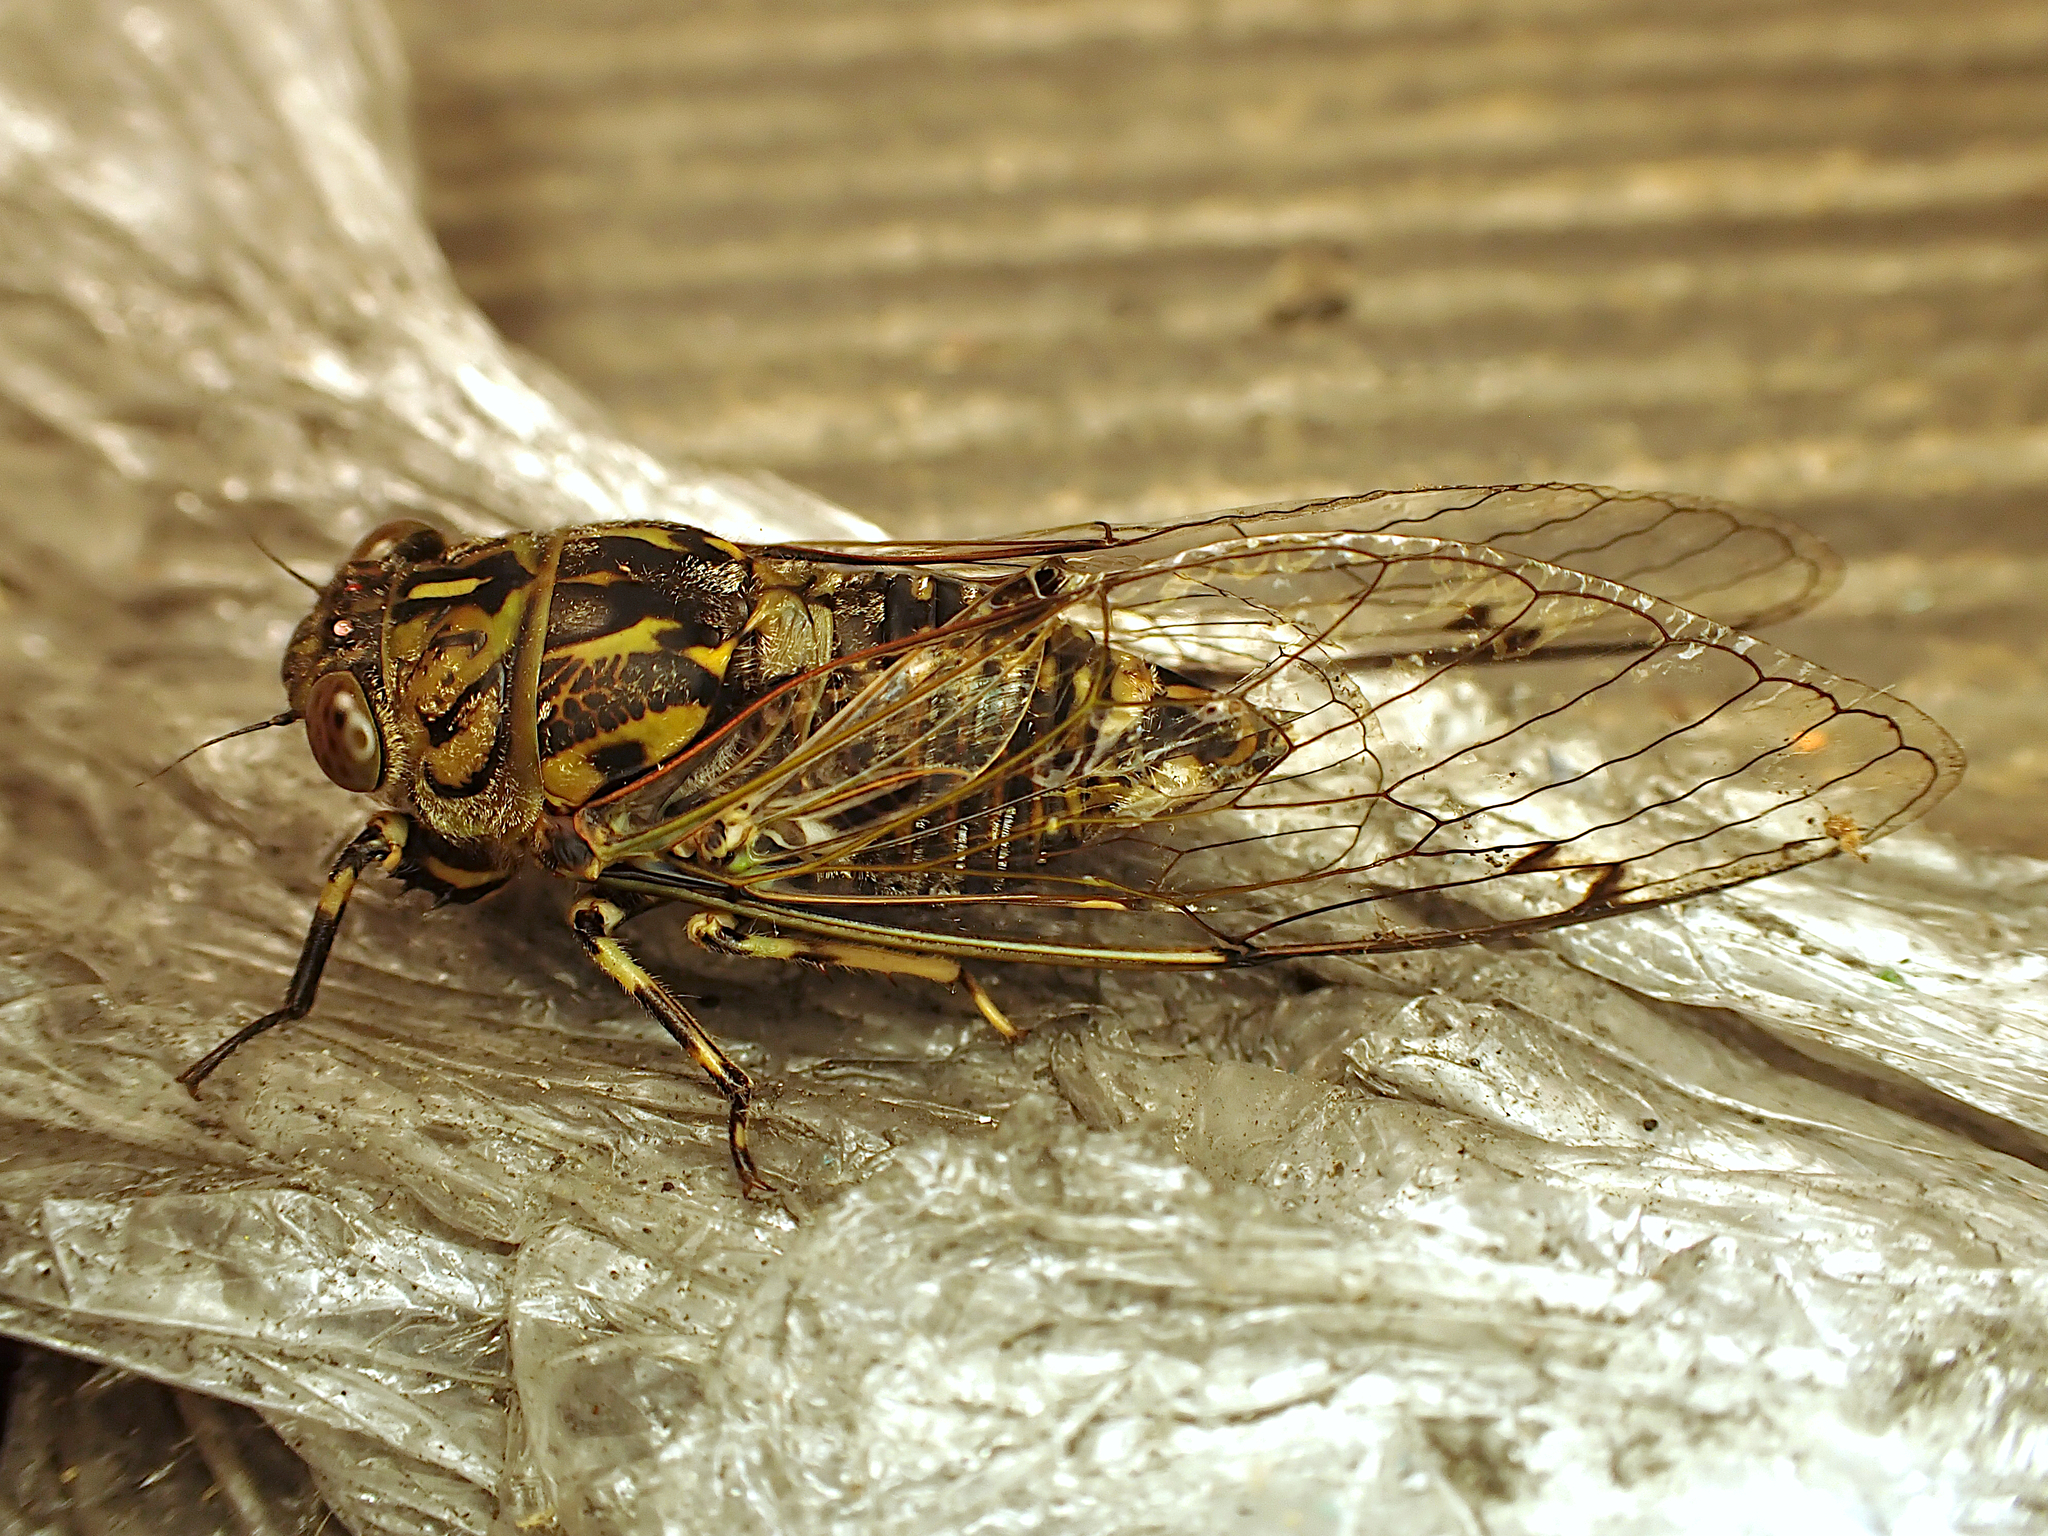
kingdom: Animalia
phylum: Arthropoda
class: Insecta
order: Hemiptera
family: Cicadidae
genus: Amphipsalta
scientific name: Amphipsalta cingulata
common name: Clapping cicada
